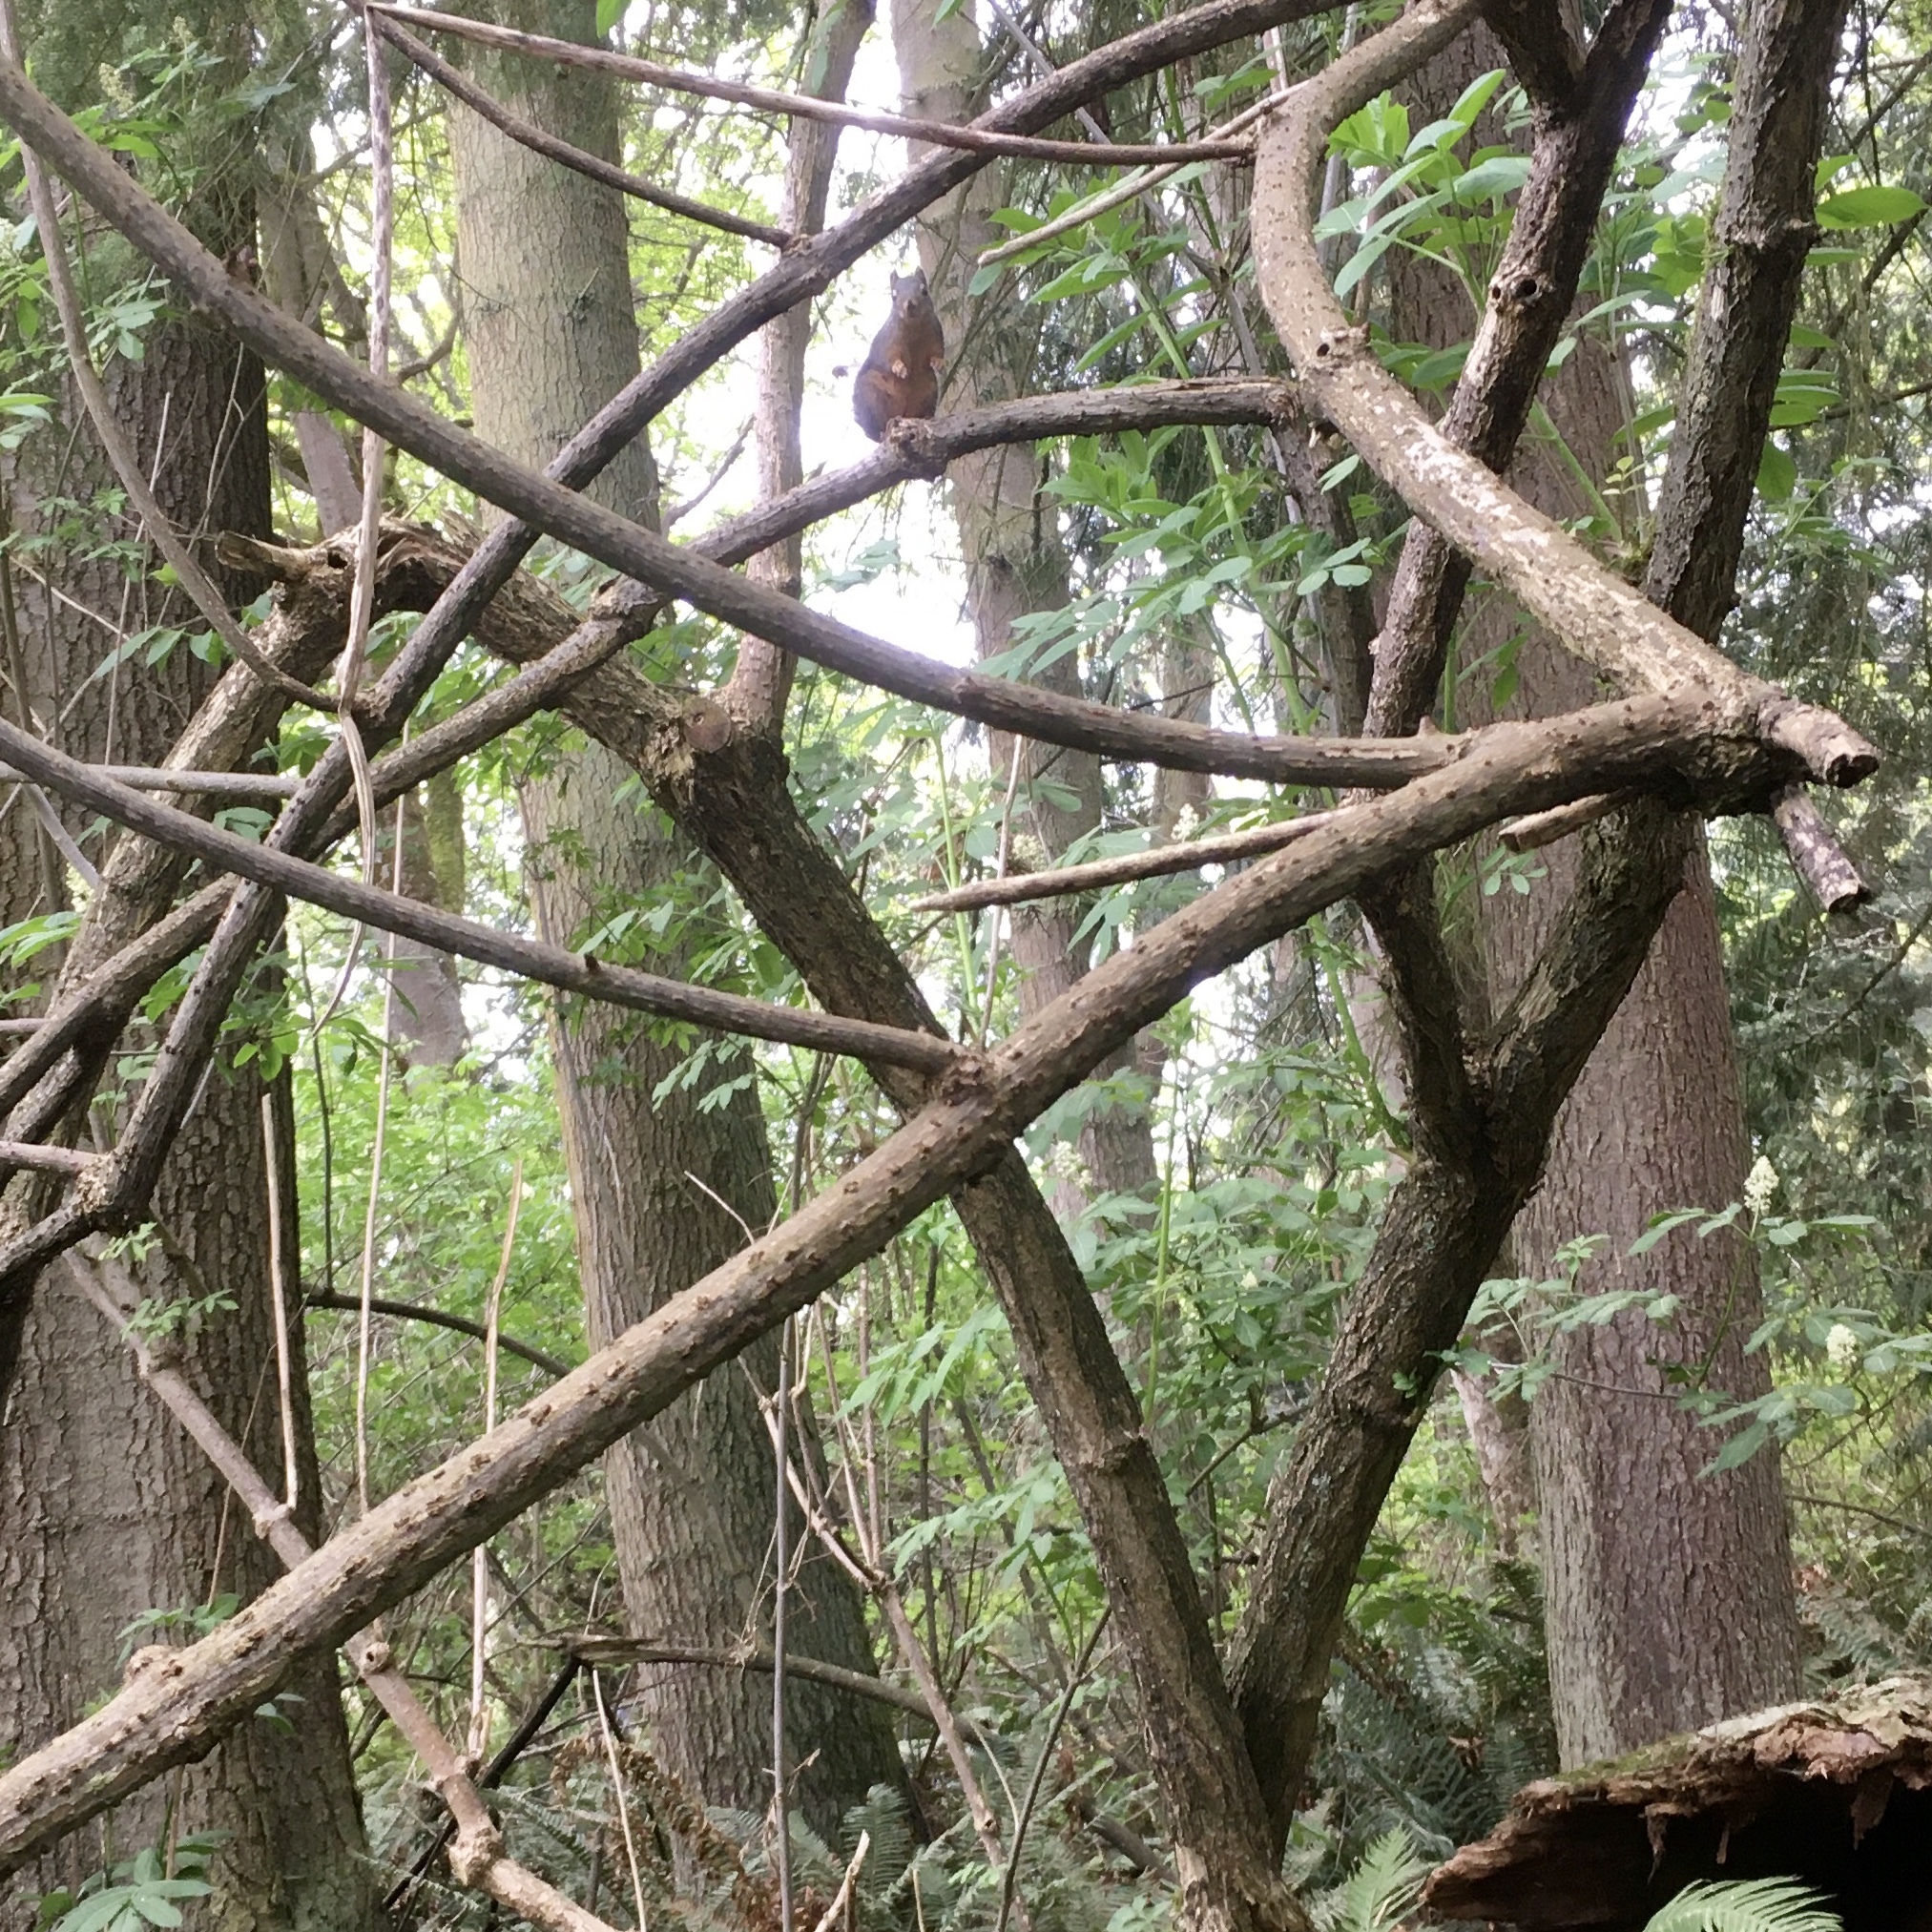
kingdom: Animalia
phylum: Chordata
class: Mammalia
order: Rodentia
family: Sciuridae
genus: Tamiasciurus
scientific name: Tamiasciurus douglasii
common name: Douglas's squirrel
